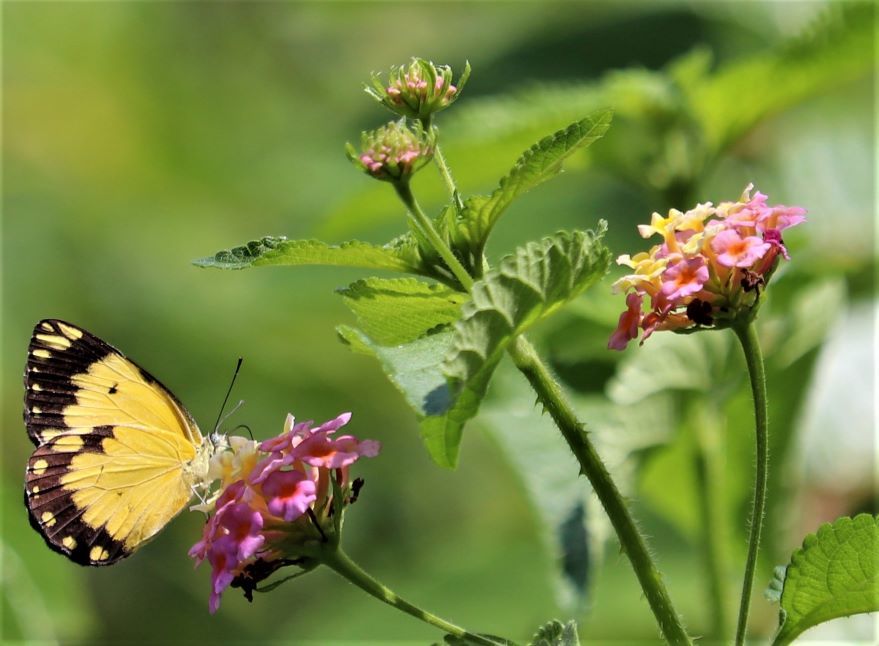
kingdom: Plantae
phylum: Tracheophyta
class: Magnoliopsida
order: Lamiales
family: Verbenaceae
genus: Lantana
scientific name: Lantana camara
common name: Lantana
